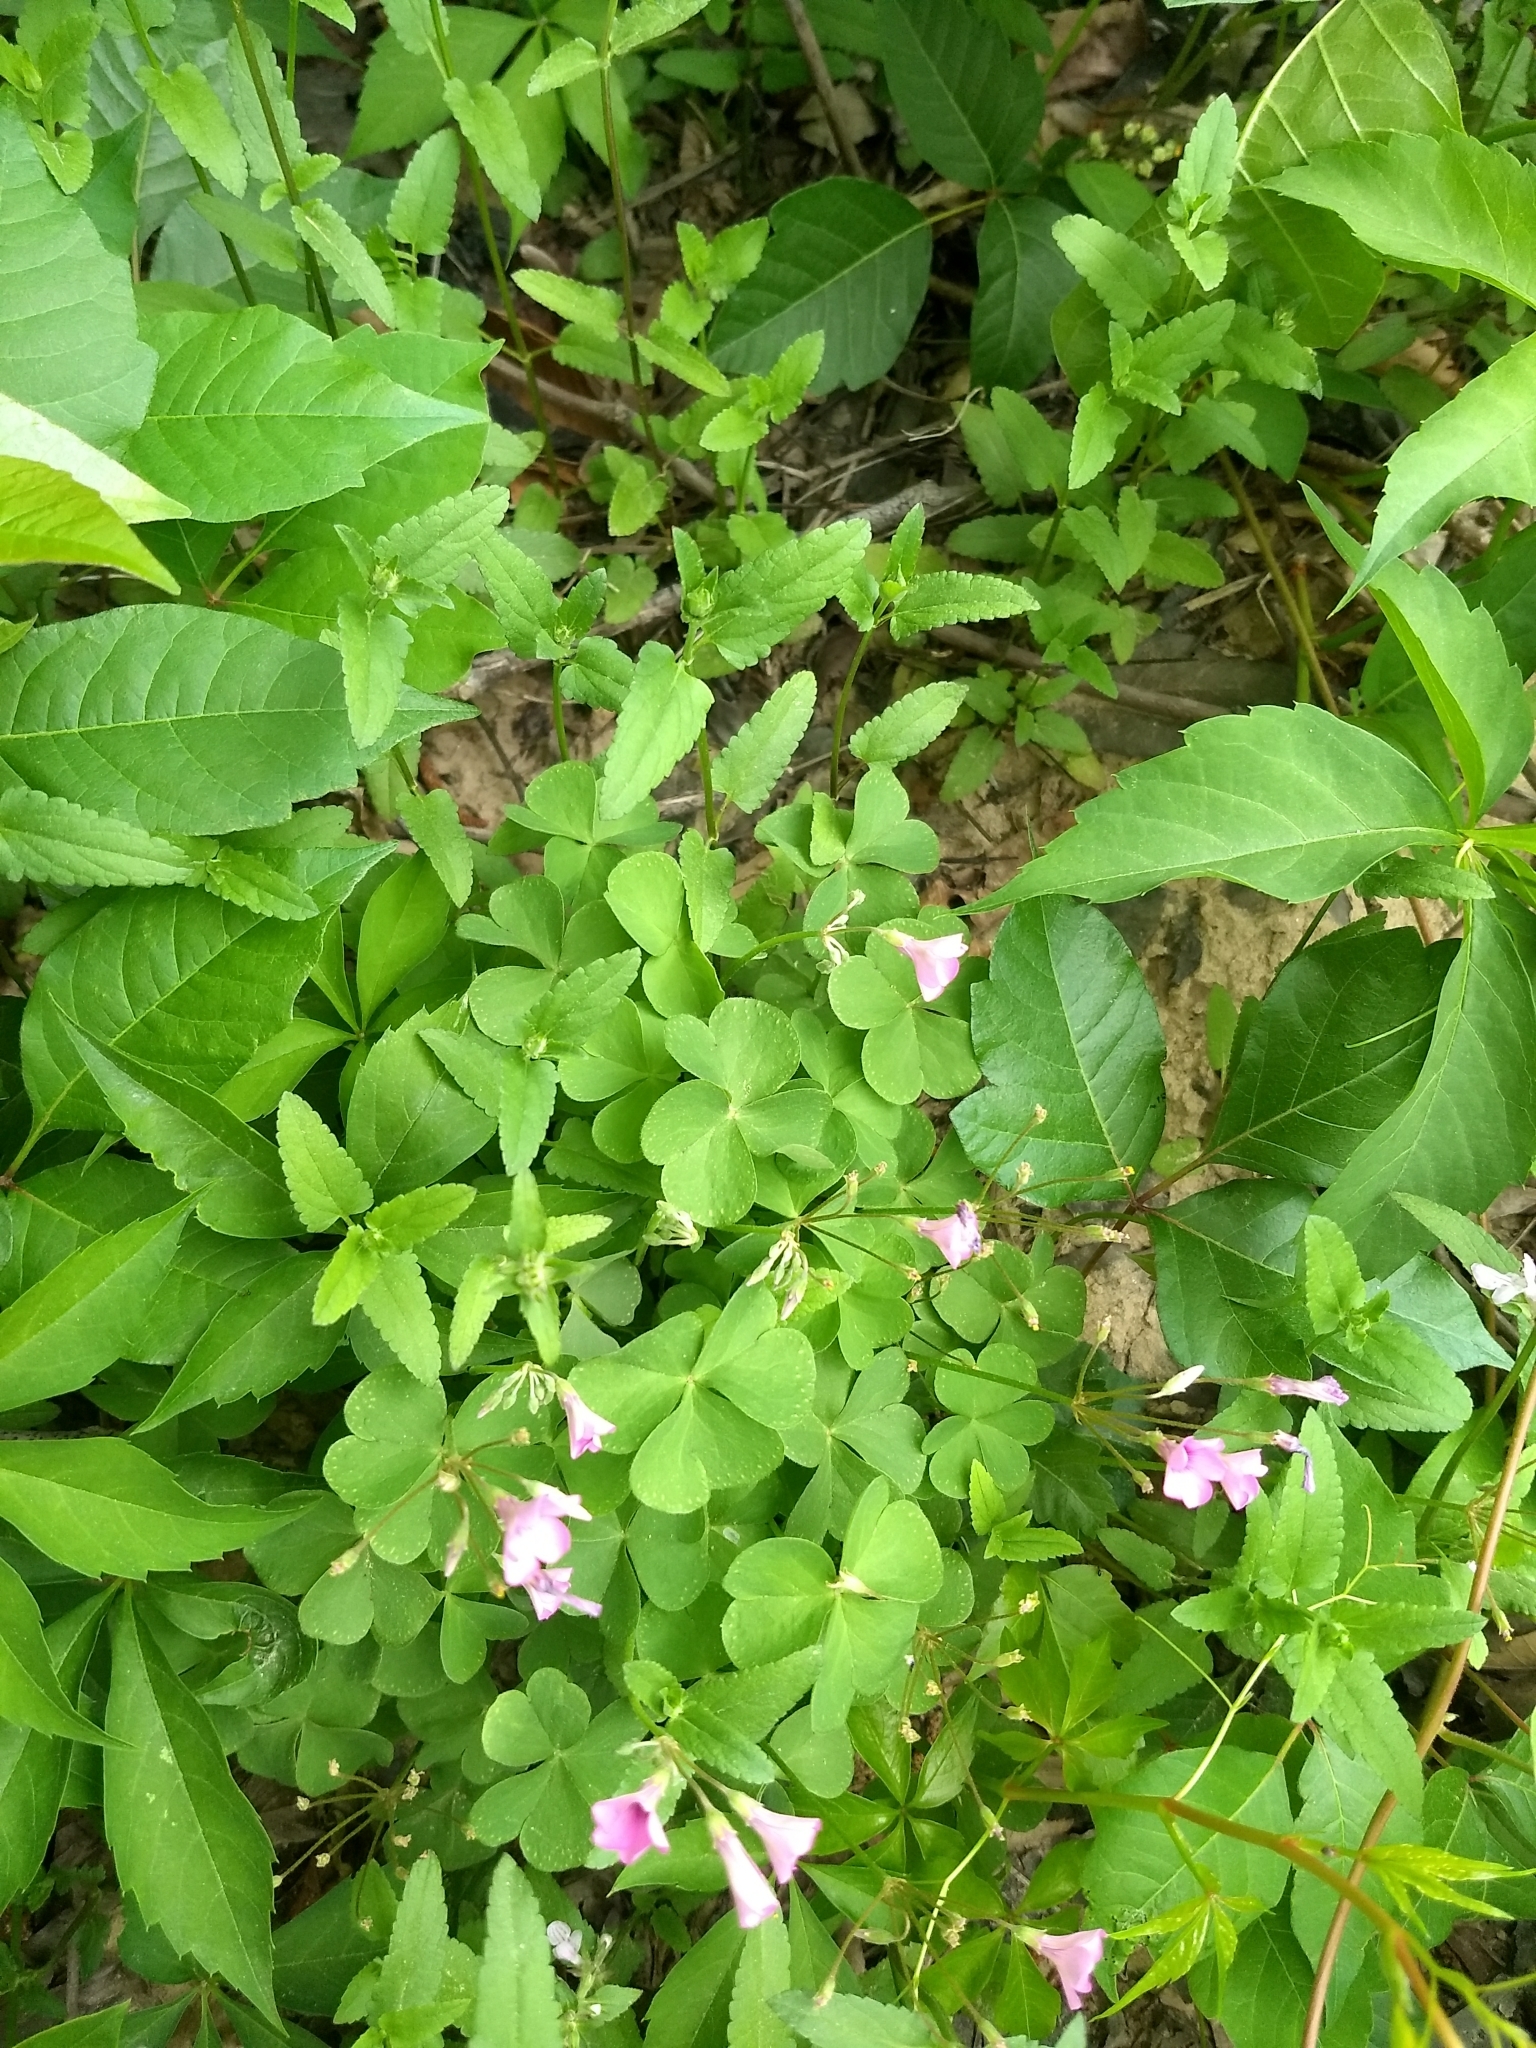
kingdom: Plantae
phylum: Tracheophyta
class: Magnoliopsida
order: Oxalidales
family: Oxalidaceae
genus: Oxalis
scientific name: Oxalis articulata
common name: Pink-sorrel
